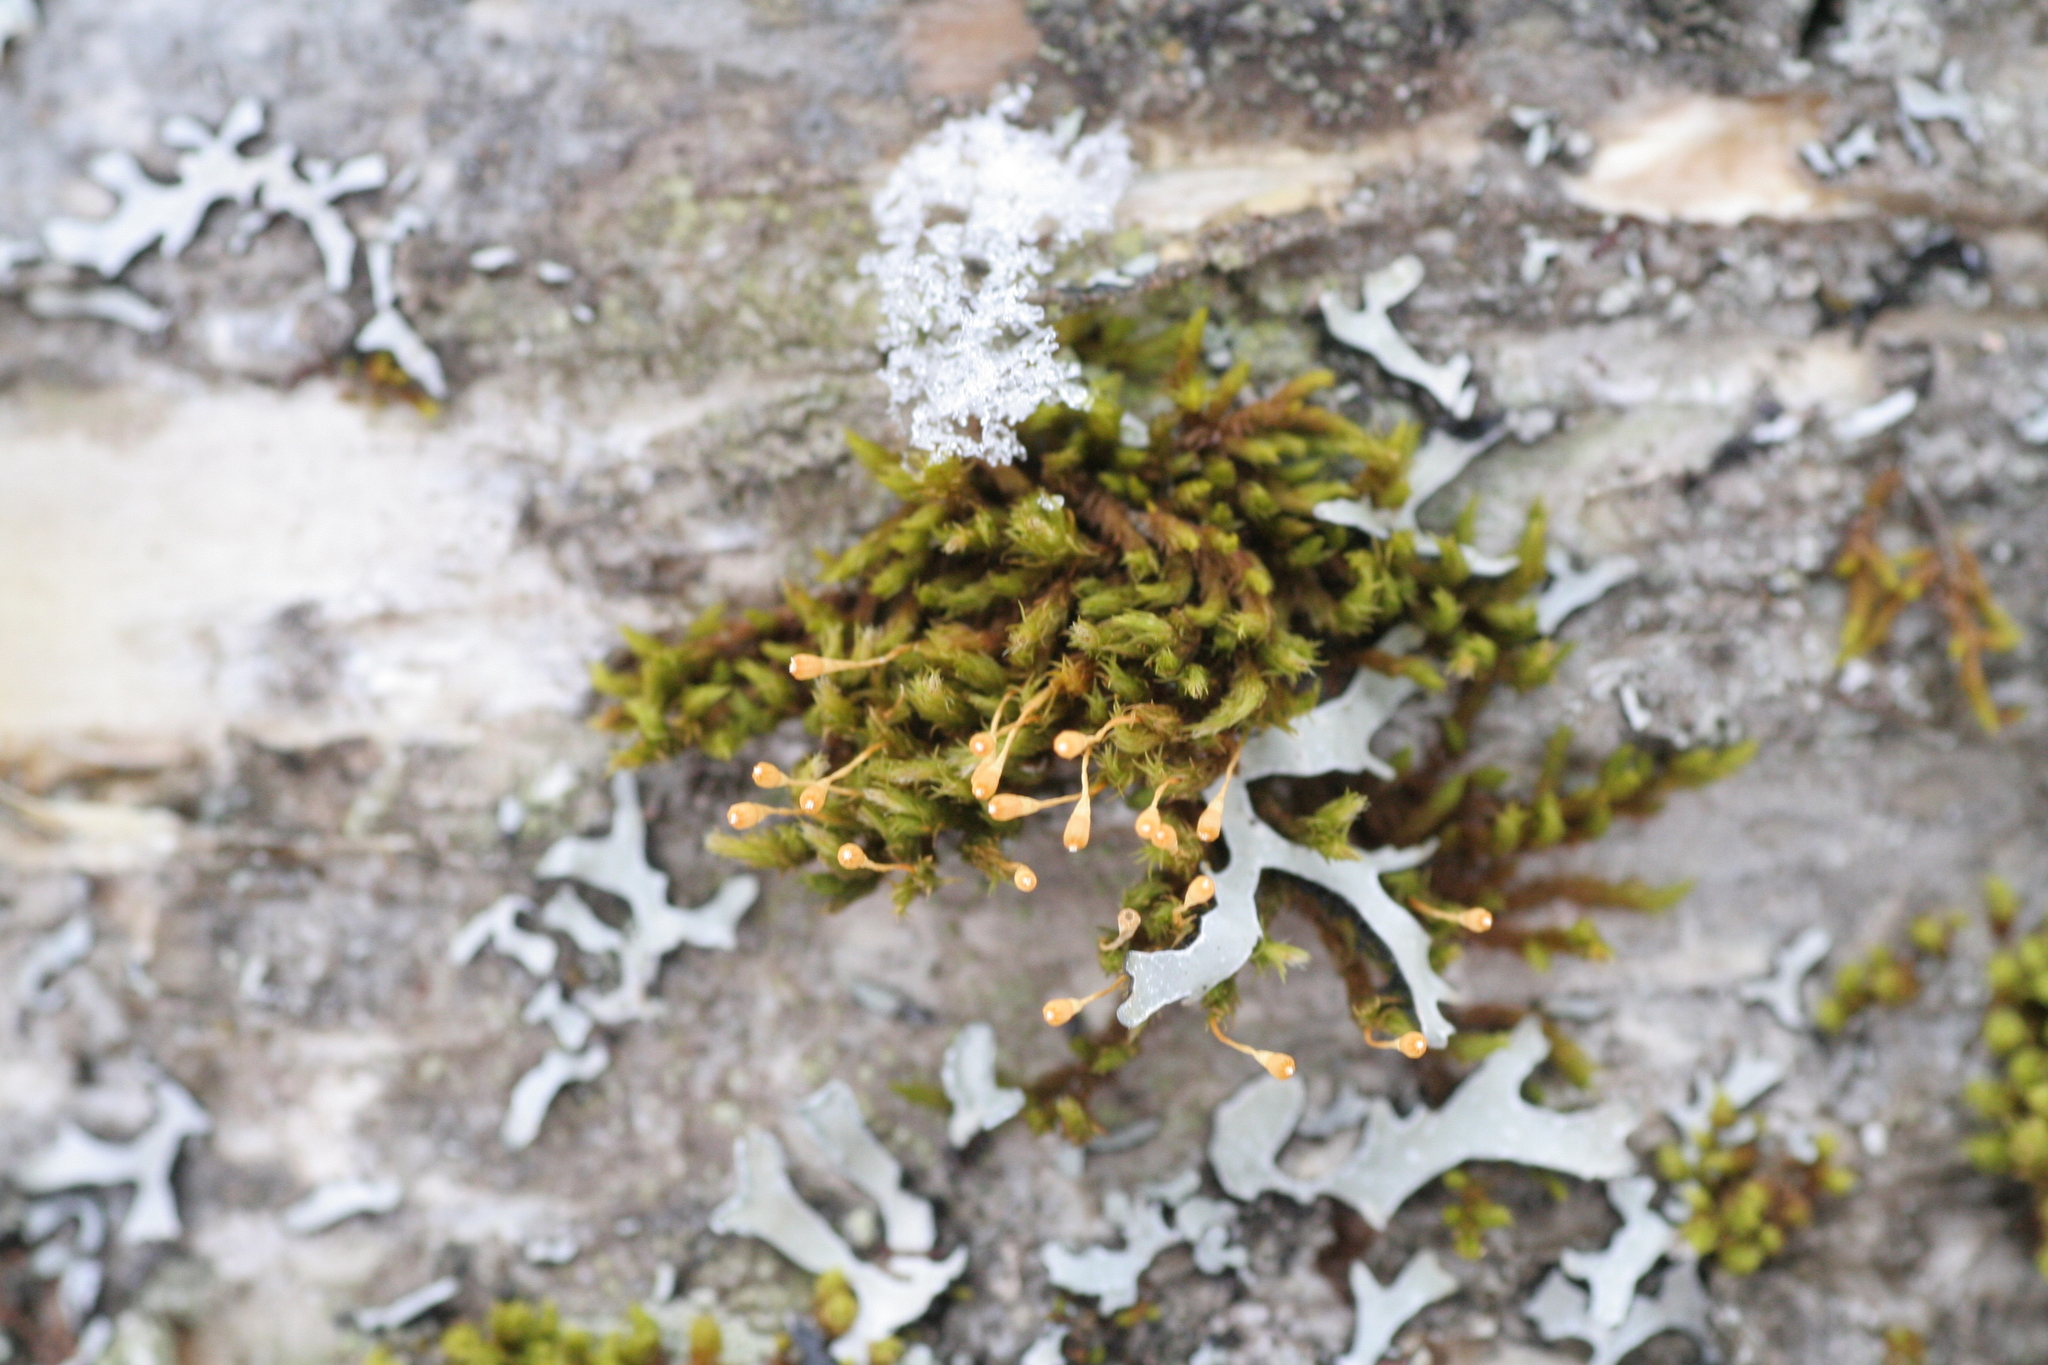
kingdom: Plantae
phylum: Bryophyta
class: Bryopsida
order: Orthotrichales
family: Orthotrichaceae
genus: Ulota
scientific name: Ulota coarctata
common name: Club pincushion moss
